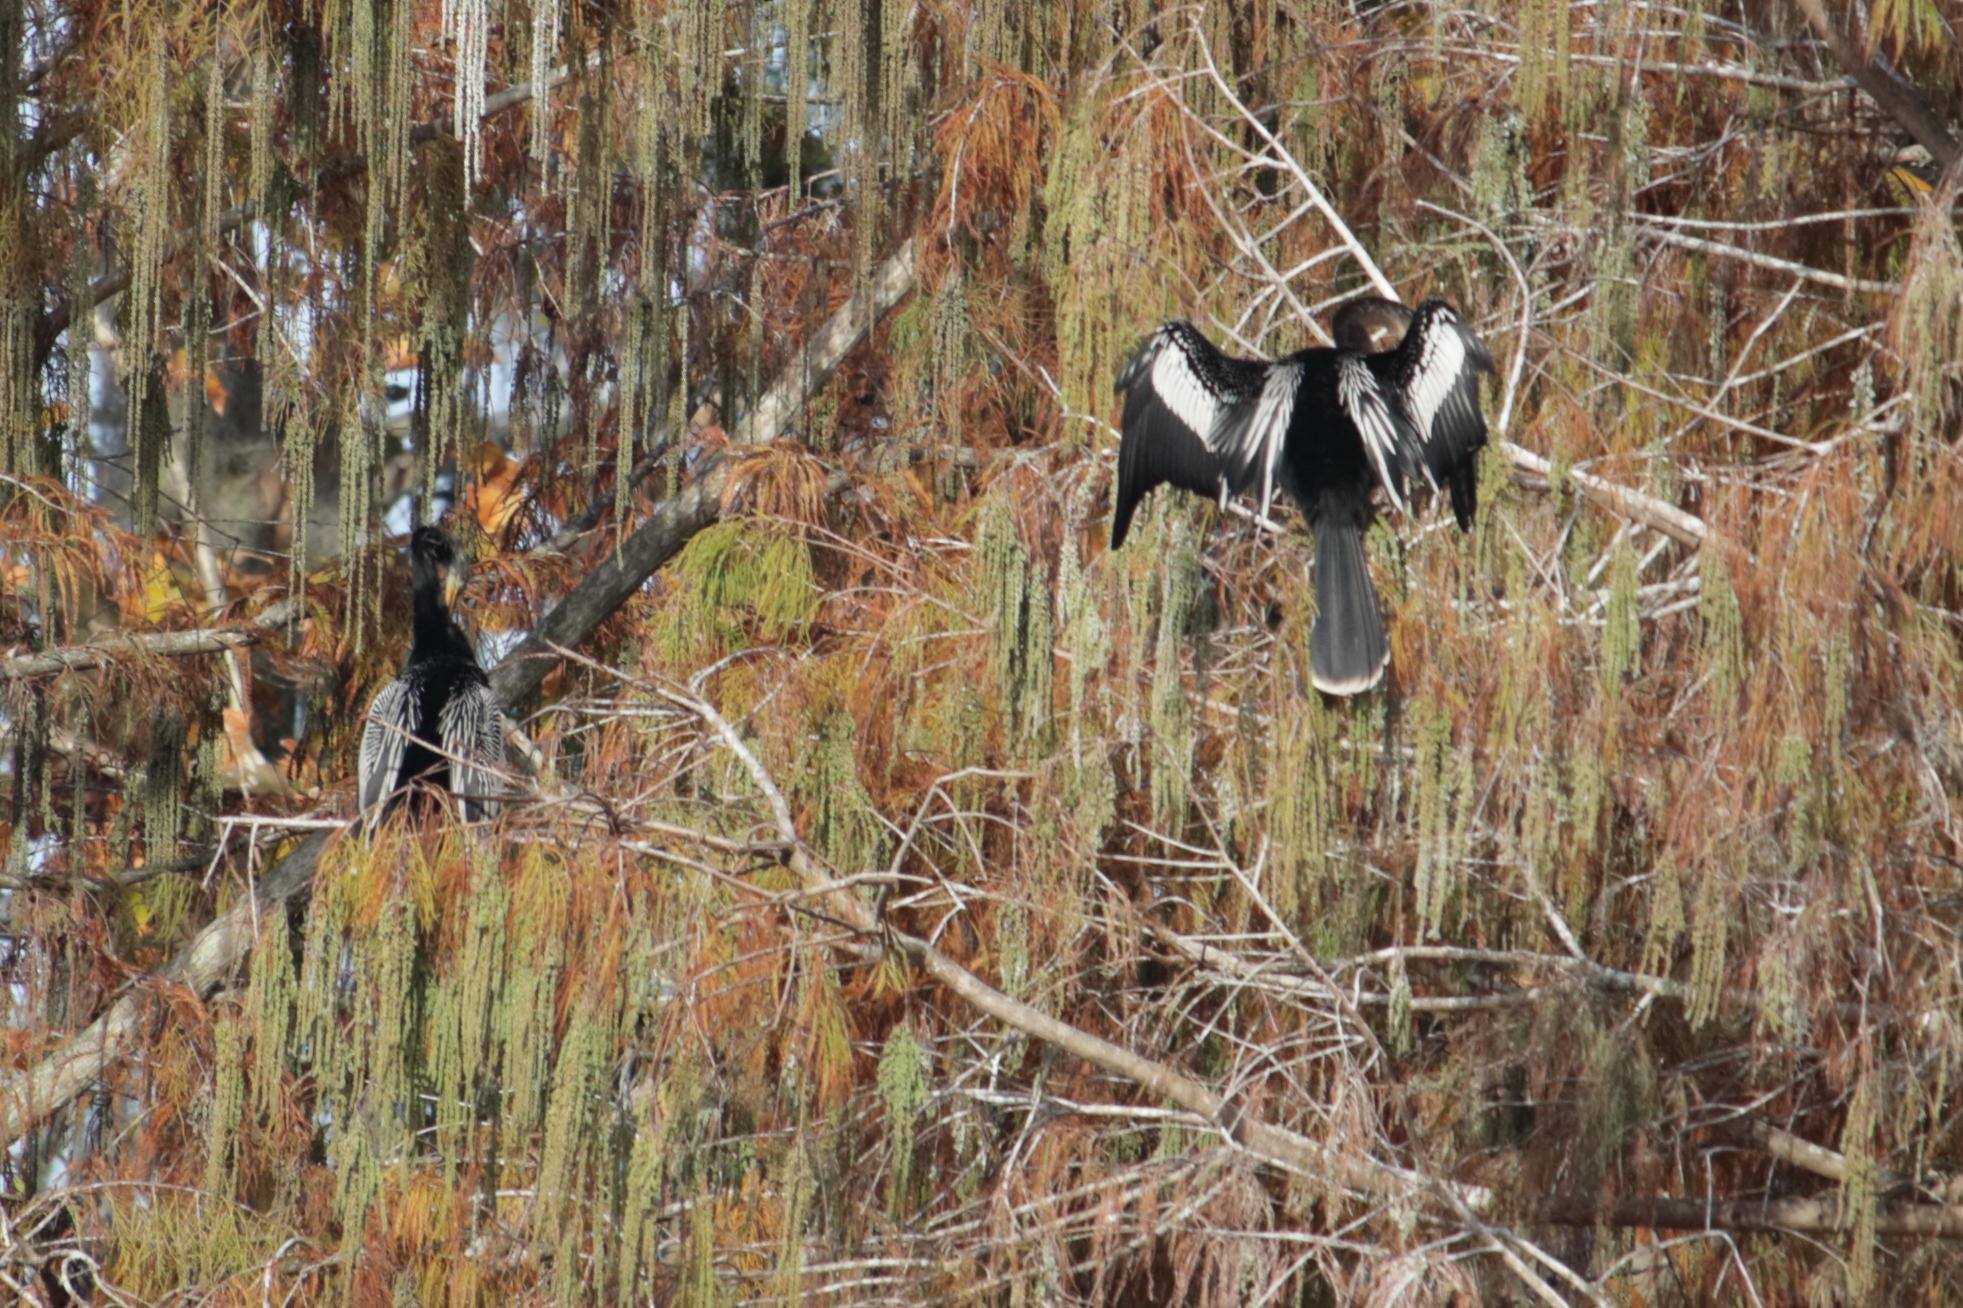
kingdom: Animalia
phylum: Chordata
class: Aves
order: Suliformes
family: Anhingidae
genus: Anhinga
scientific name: Anhinga anhinga
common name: Anhinga
